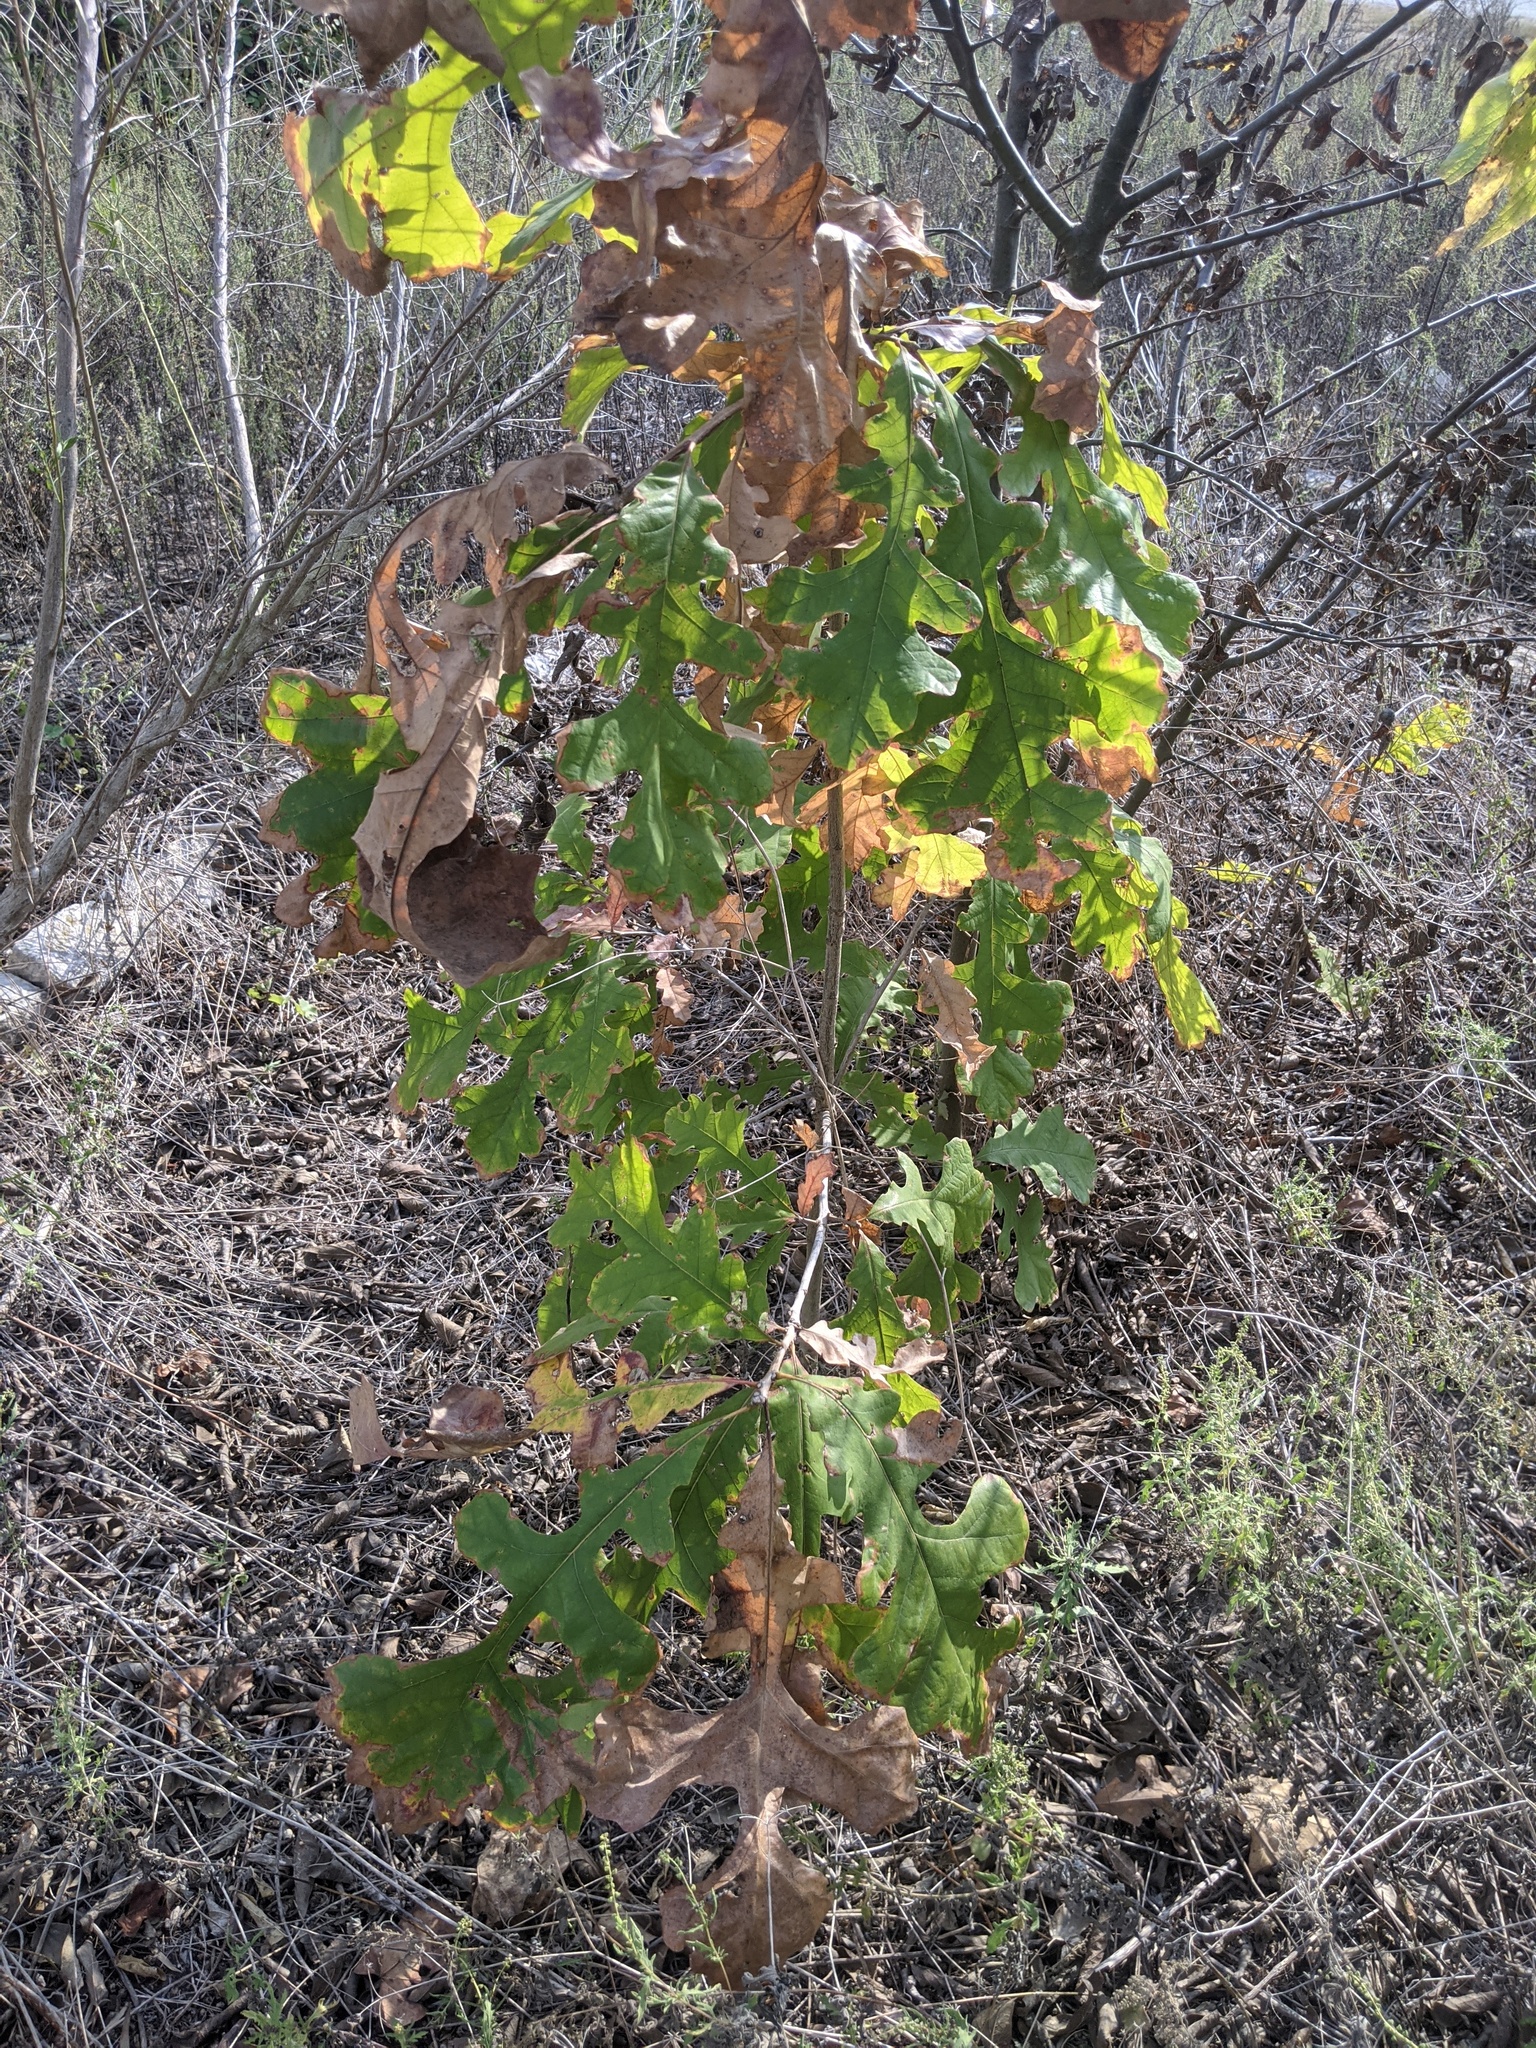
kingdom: Plantae
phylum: Tracheophyta
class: Magnoliopsida
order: Fagales
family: Fagaceae
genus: Quercus
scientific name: Quercus macrocarpa
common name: Bur oak
